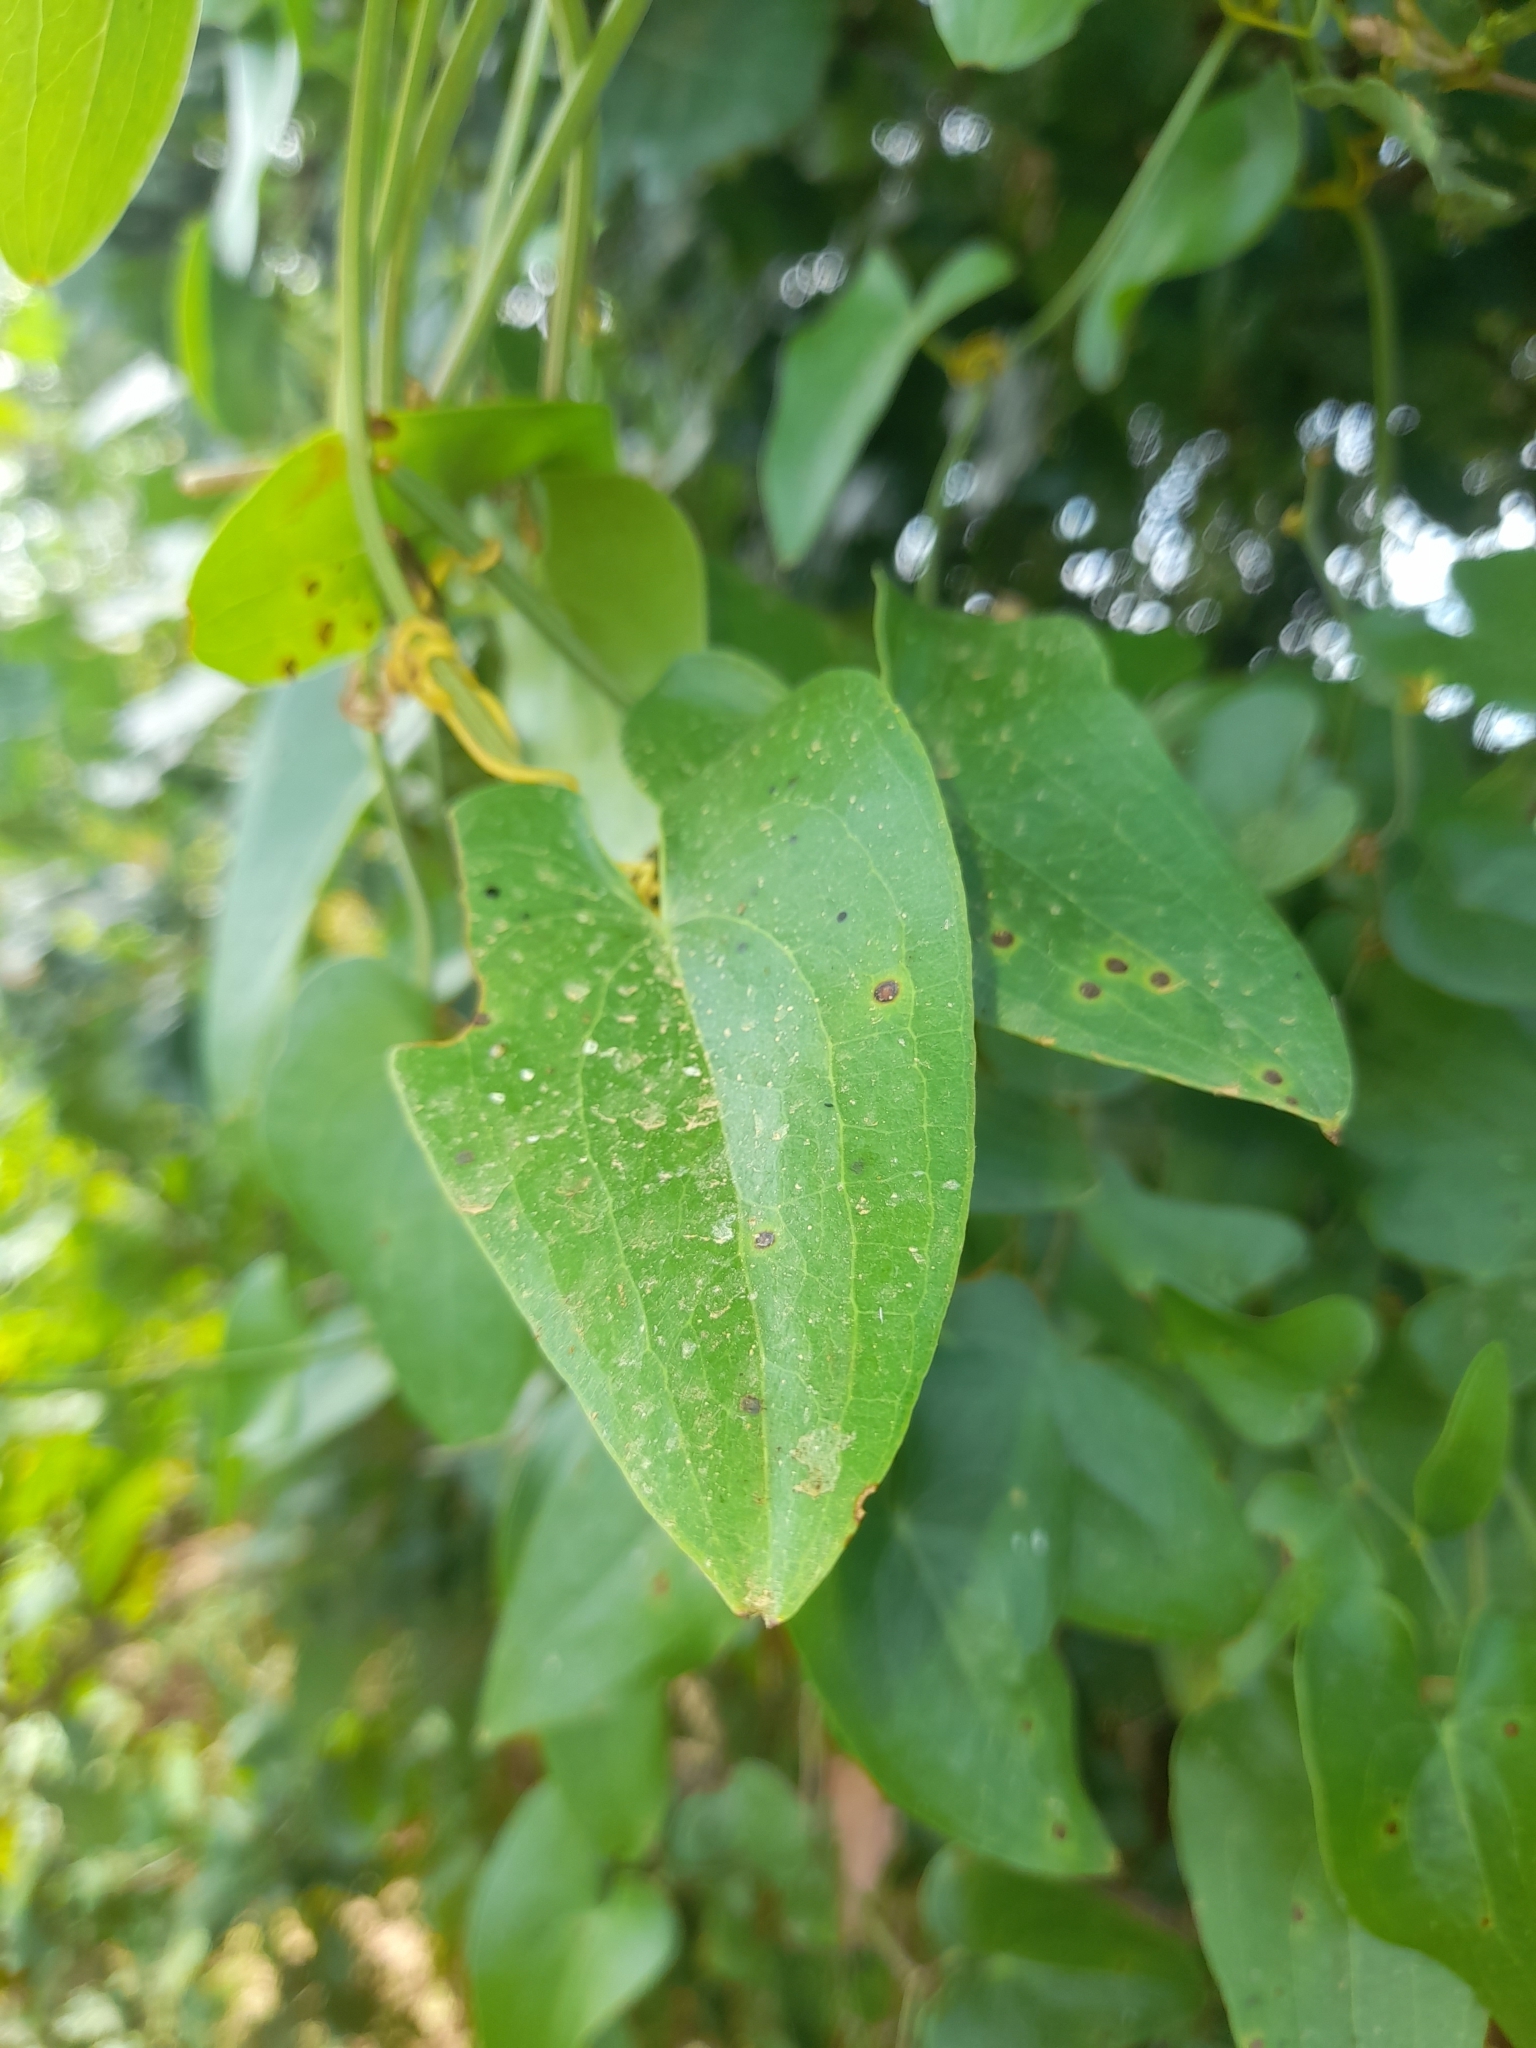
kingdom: Plantae
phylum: Tracheophyta
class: Liliopsida
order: Liliales
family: Smilacaceae
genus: Smilax
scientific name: Smilax aspera
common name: Common smilax
